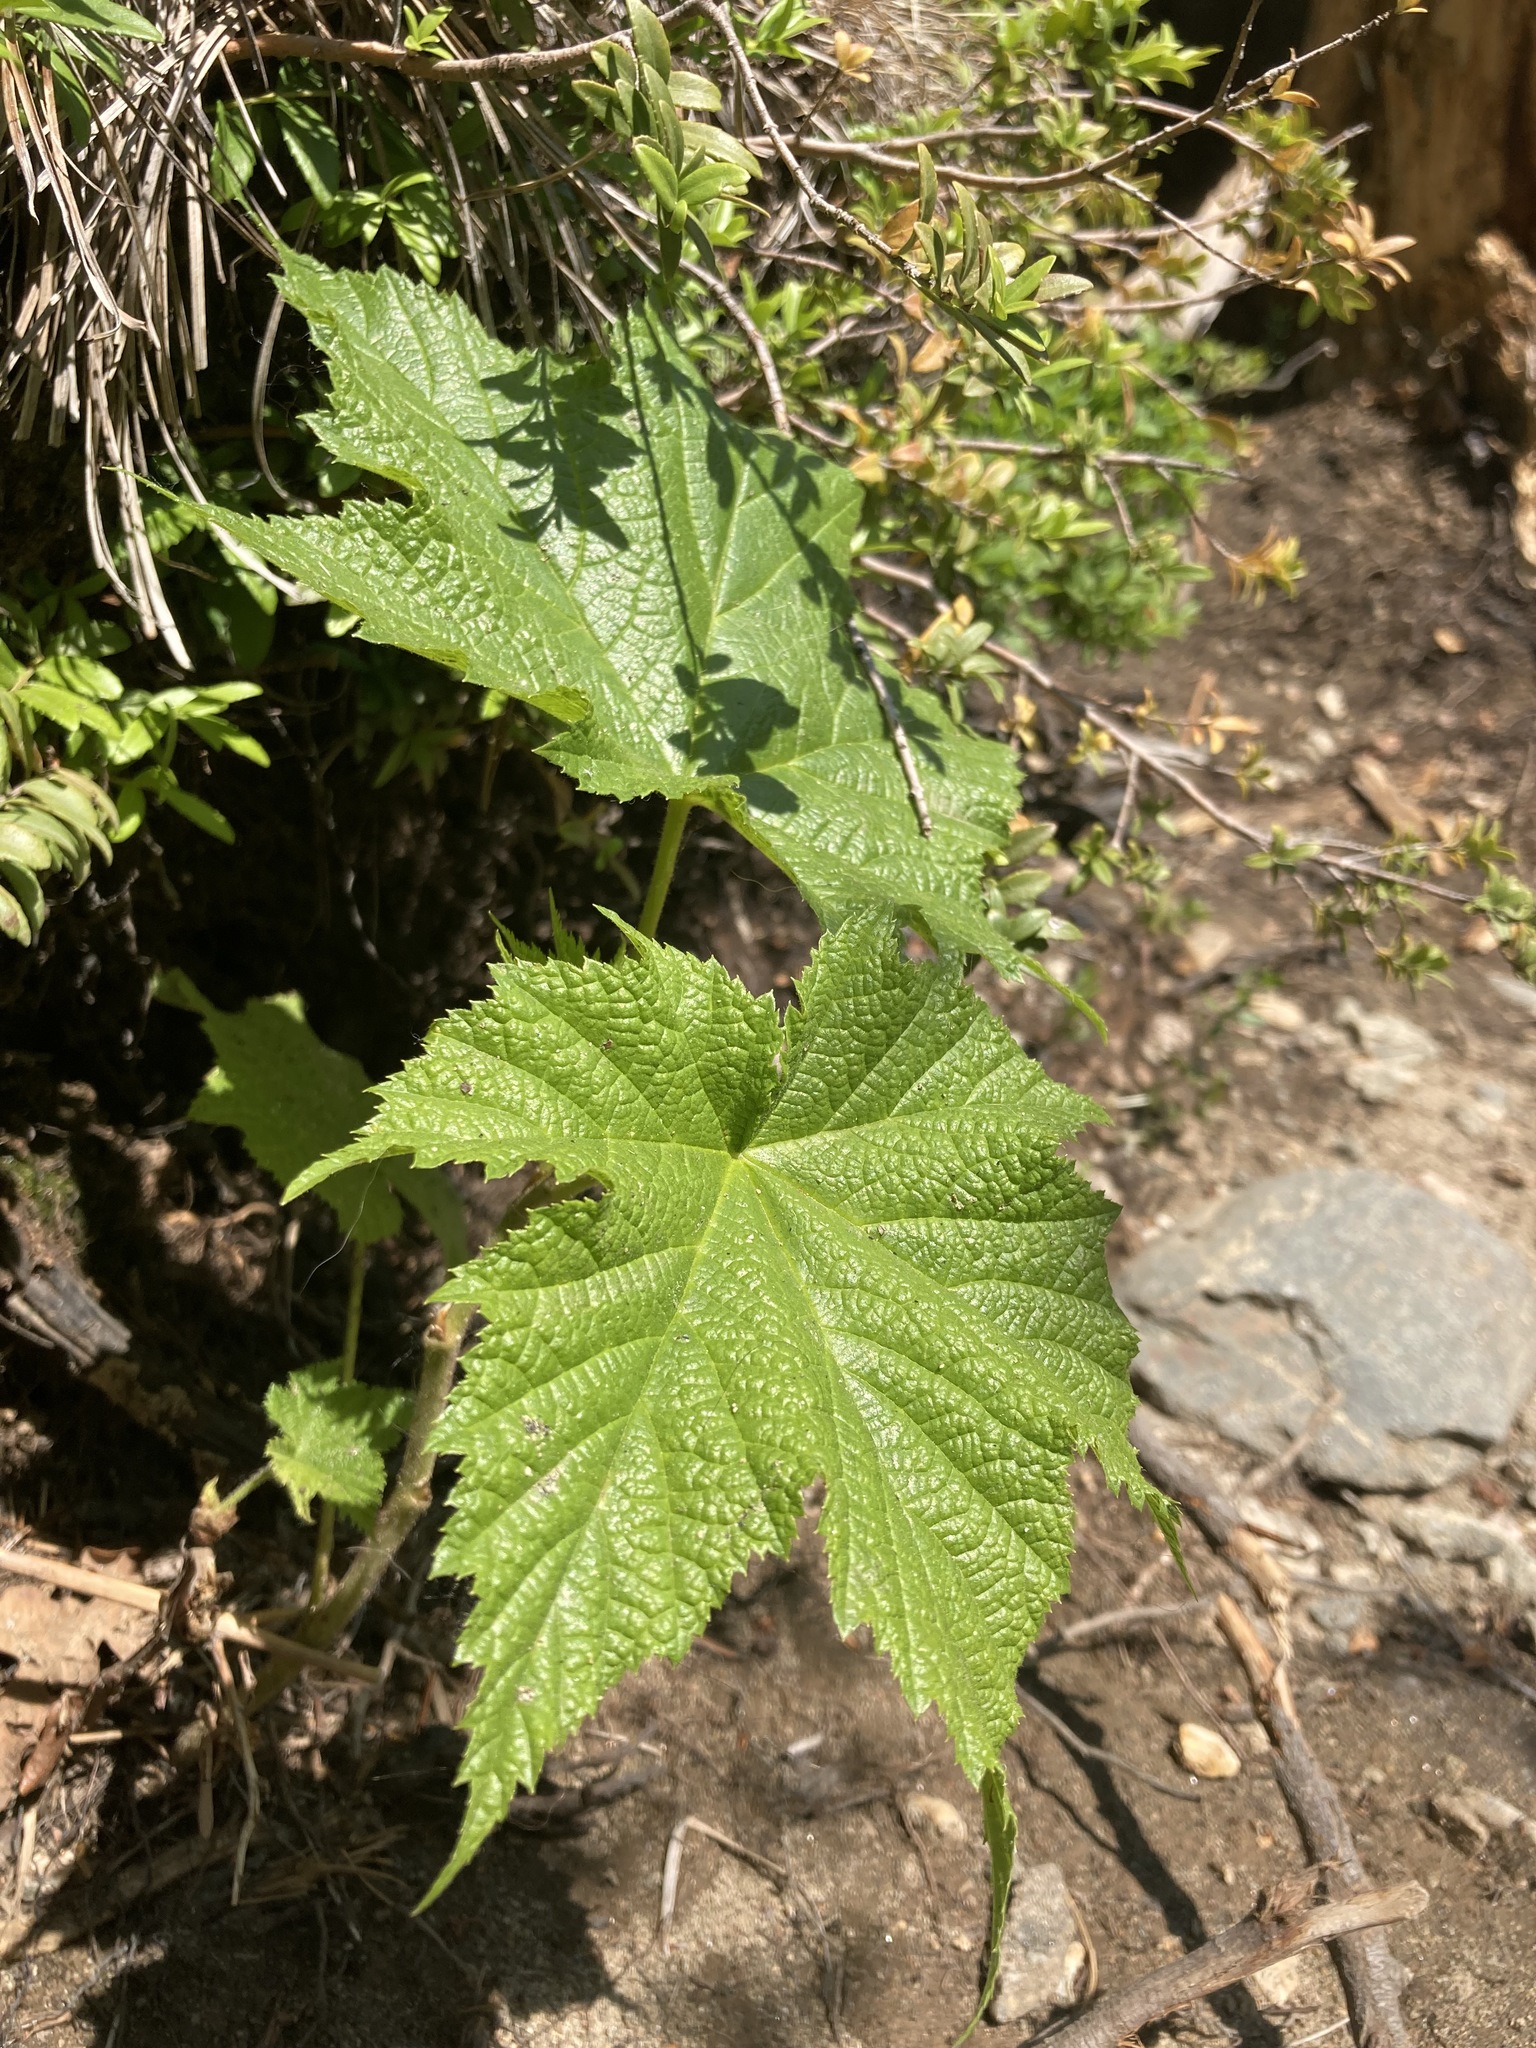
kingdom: Plantae
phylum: Tracheophyta
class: Magnoliopsida
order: Rosales
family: Rosaceae
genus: Rubus
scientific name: Rubus parviflorus
